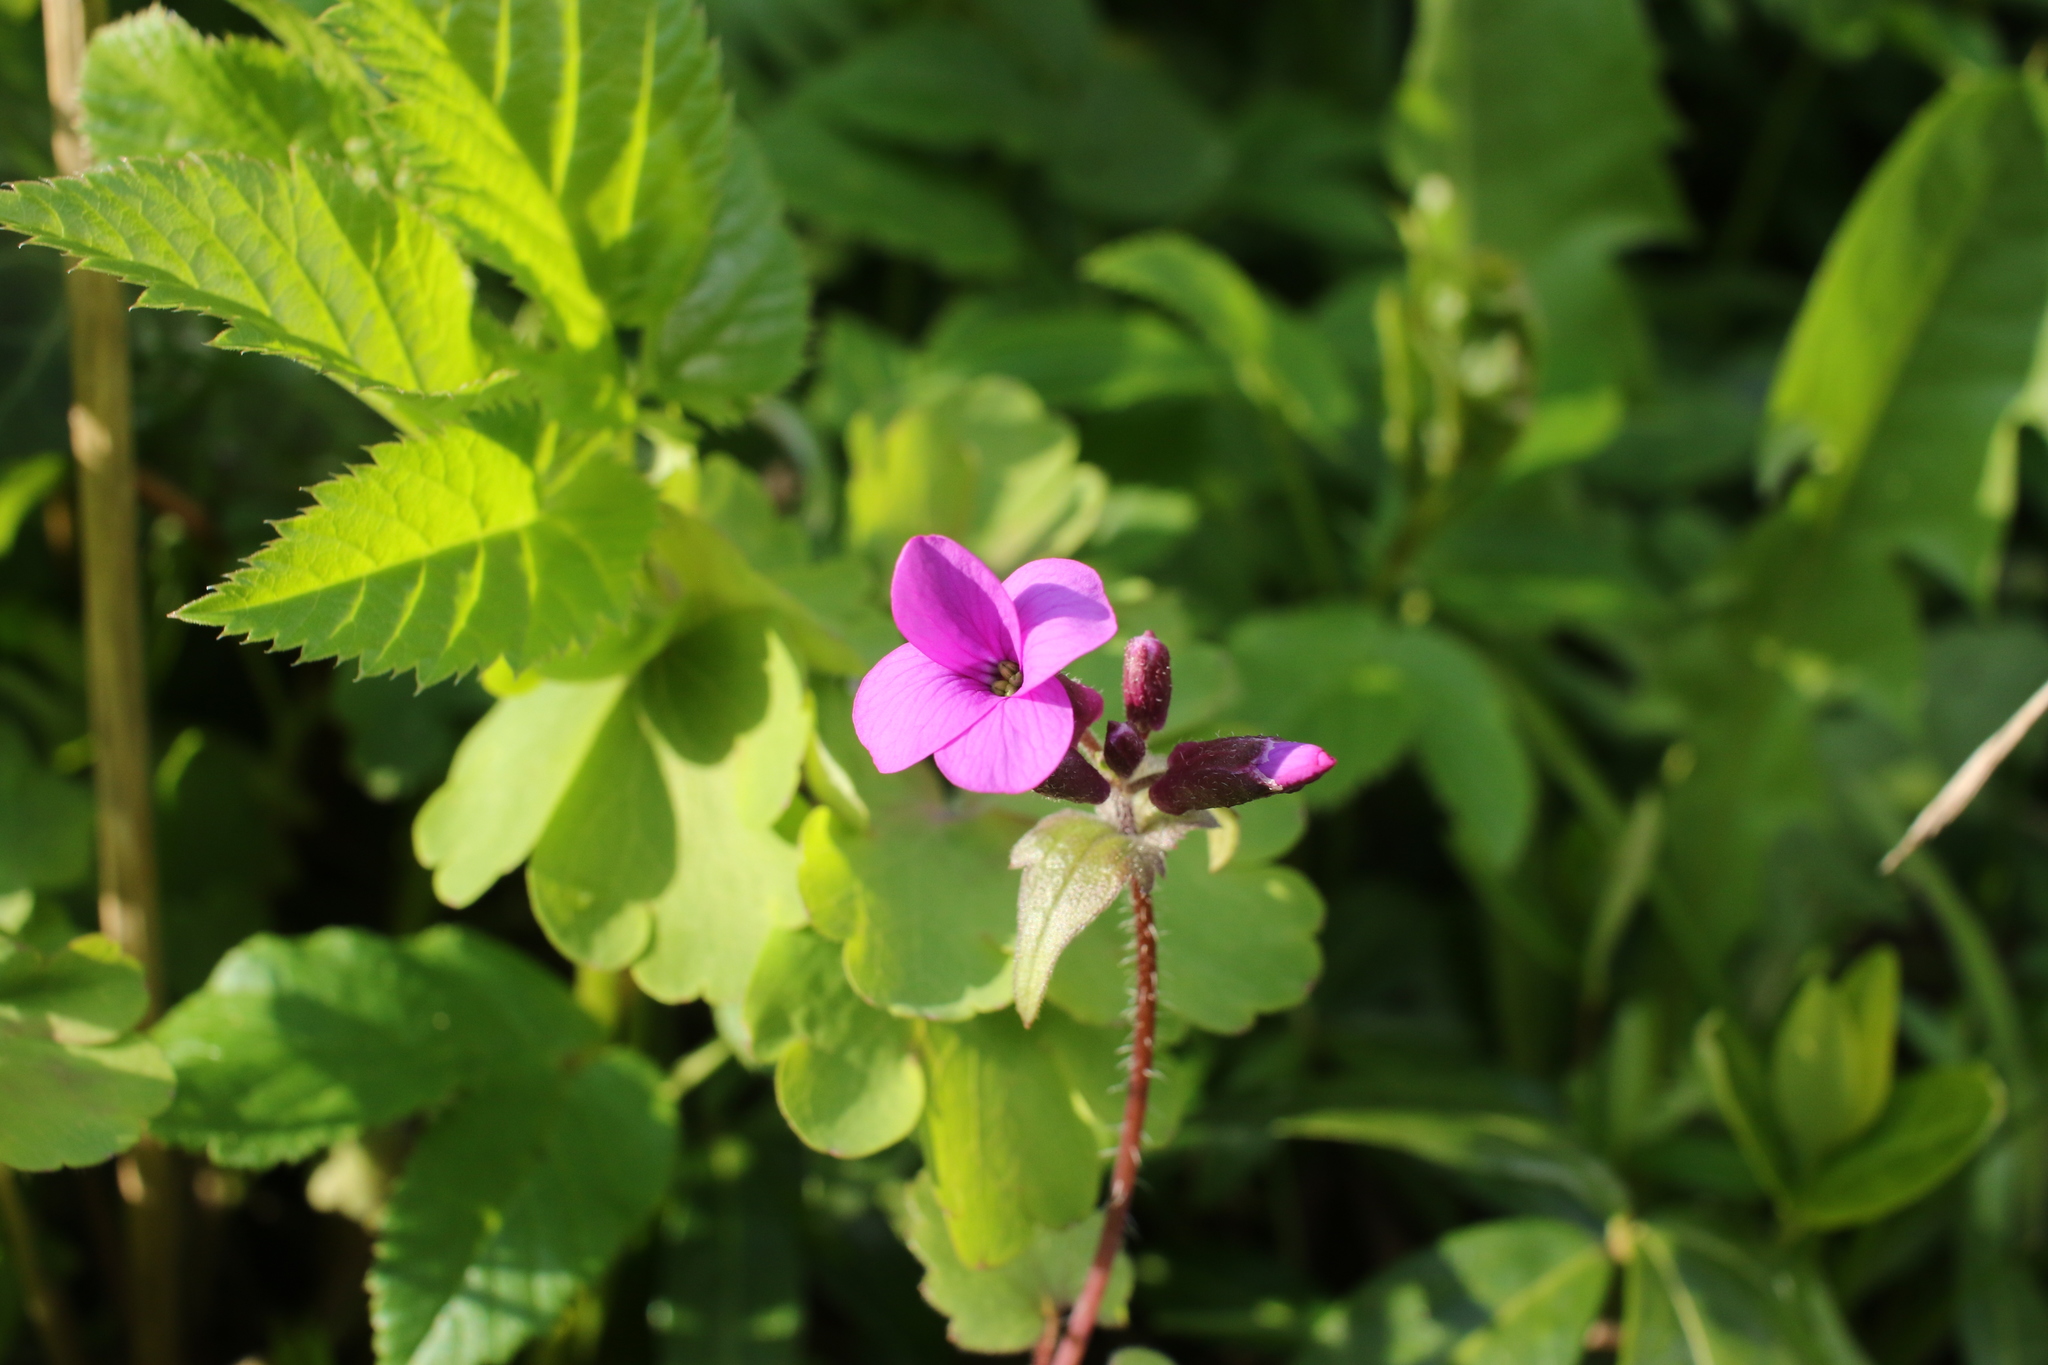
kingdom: Plantae
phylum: Tracheophyta
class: Magnoliopsida
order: Brassicales
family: Brassicaceae
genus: Lunaria
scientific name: Lunaria annua
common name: Honesty
